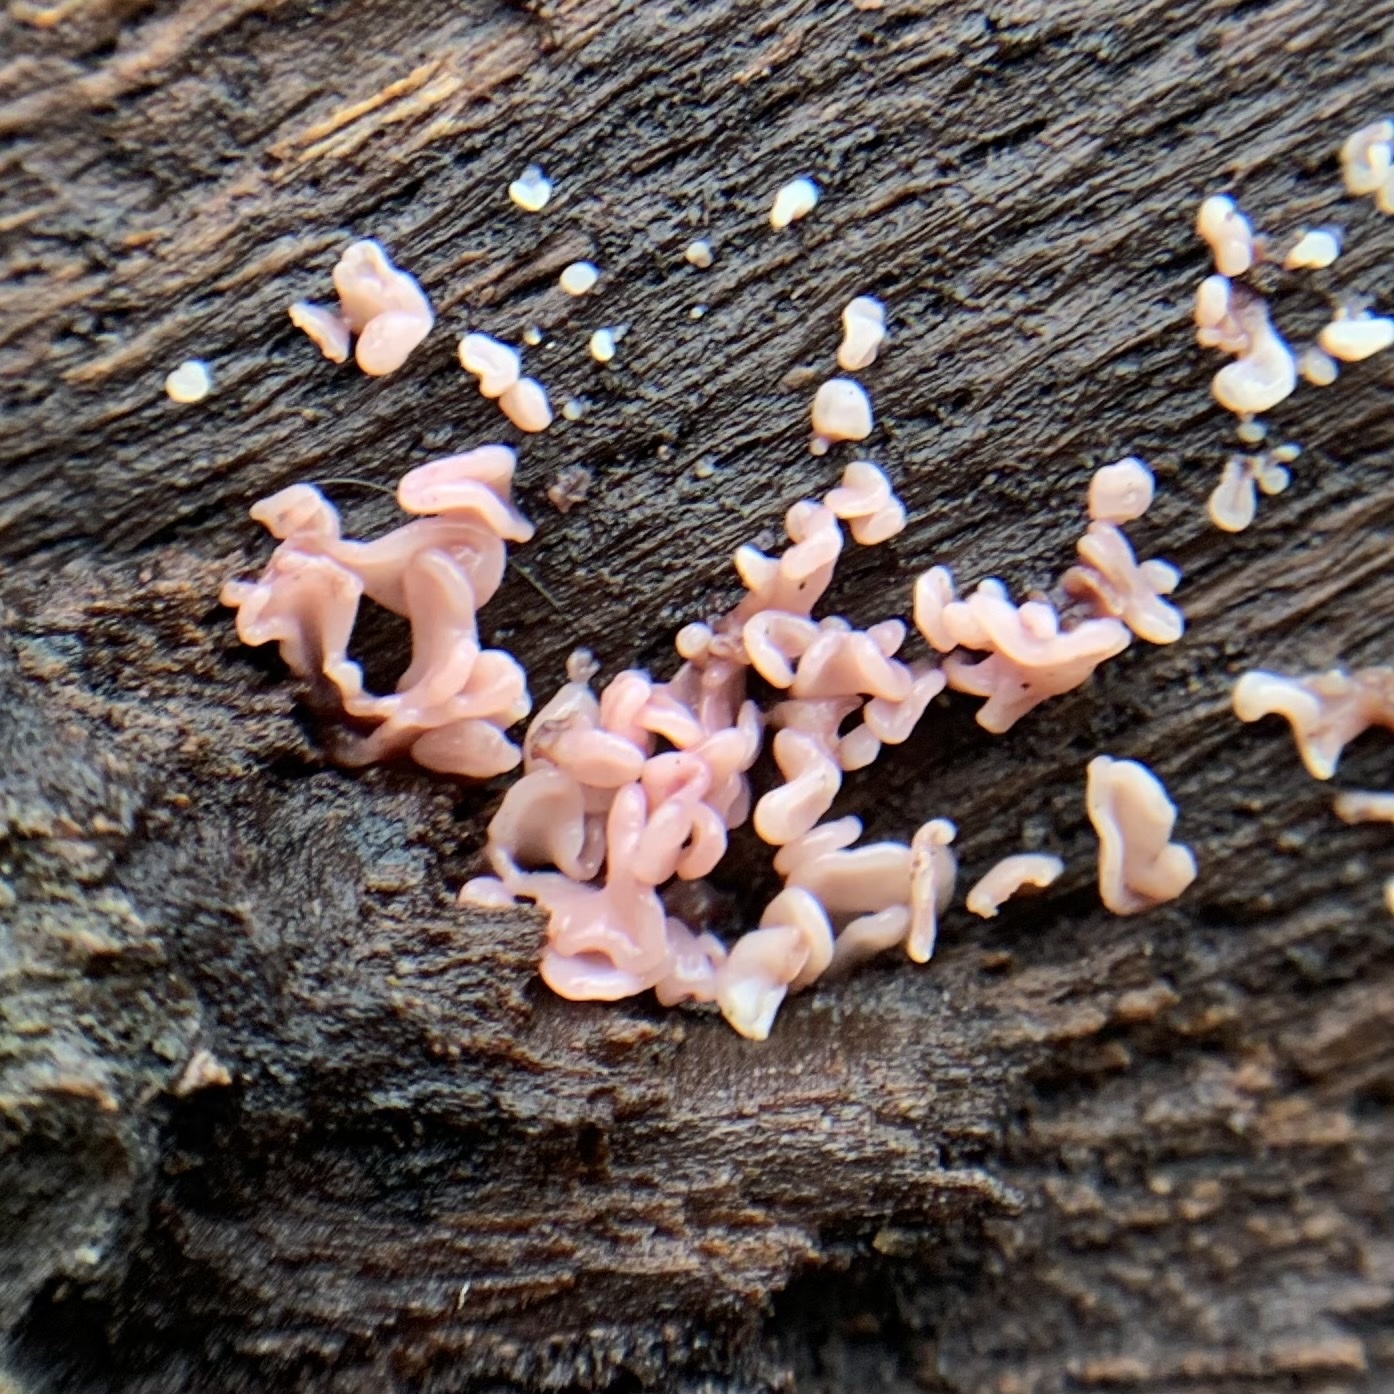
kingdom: Fungi
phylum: Ascomycota
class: Leotiomycetes
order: Helotiales
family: Gelatinodiscaceae
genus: Ascocoryne
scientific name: Ascocoryne sarcoides
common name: Purple jellydisc
